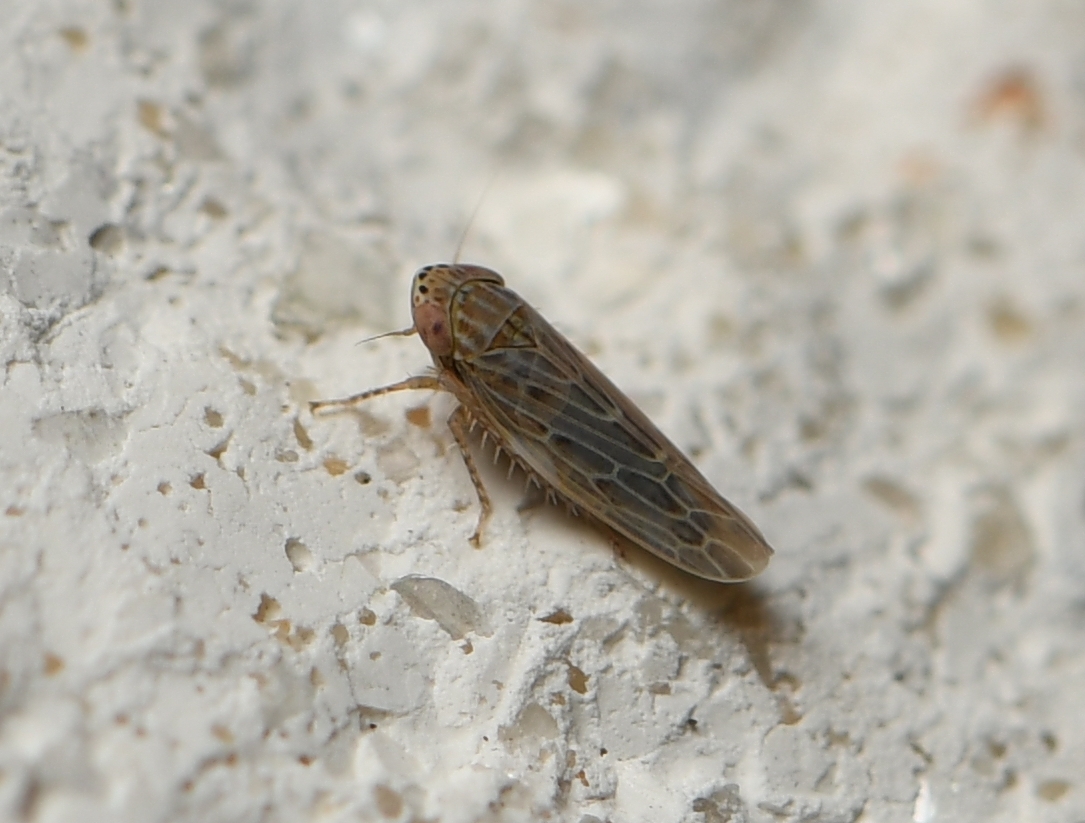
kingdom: Animalia
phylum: Arthropoda
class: Insecta
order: Hemiptera
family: Cicadellidae
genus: Graminella
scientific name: Graminella sonora
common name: Lesser lawn leafhopper
